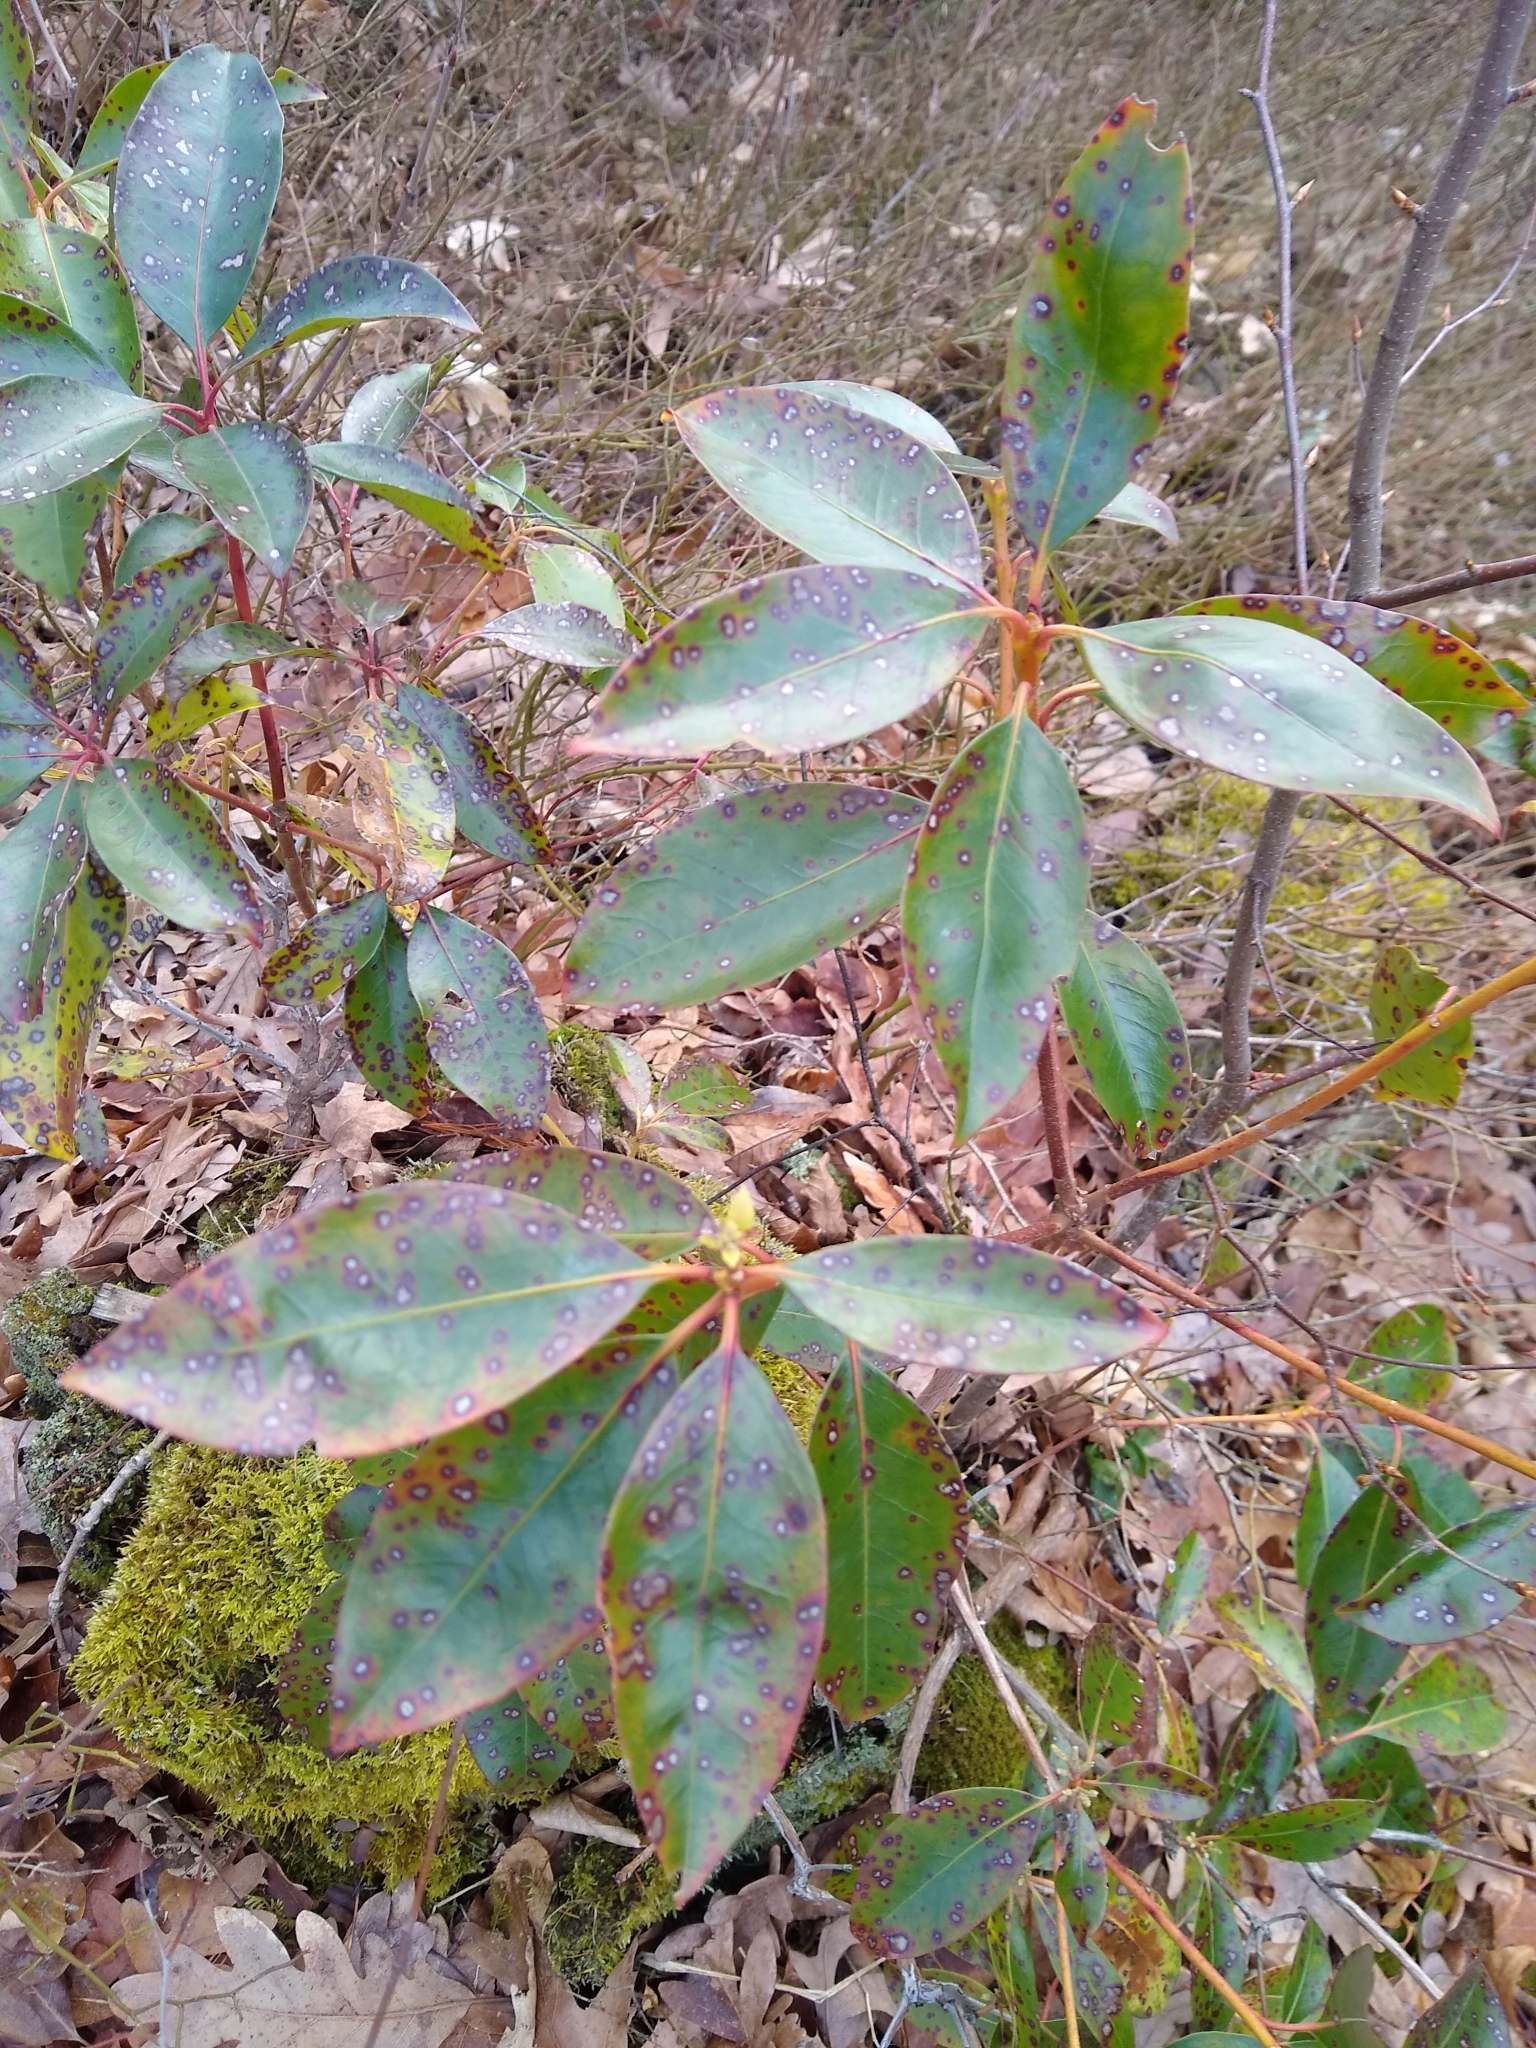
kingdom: Fungi
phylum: Ascomycota
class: Dothideomycetes
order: Mycosphaerellales
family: Mycosphaerellaceae
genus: Mycosphaerella
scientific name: Mycosphaerella colorata
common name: Mountain laurel leaf spot
